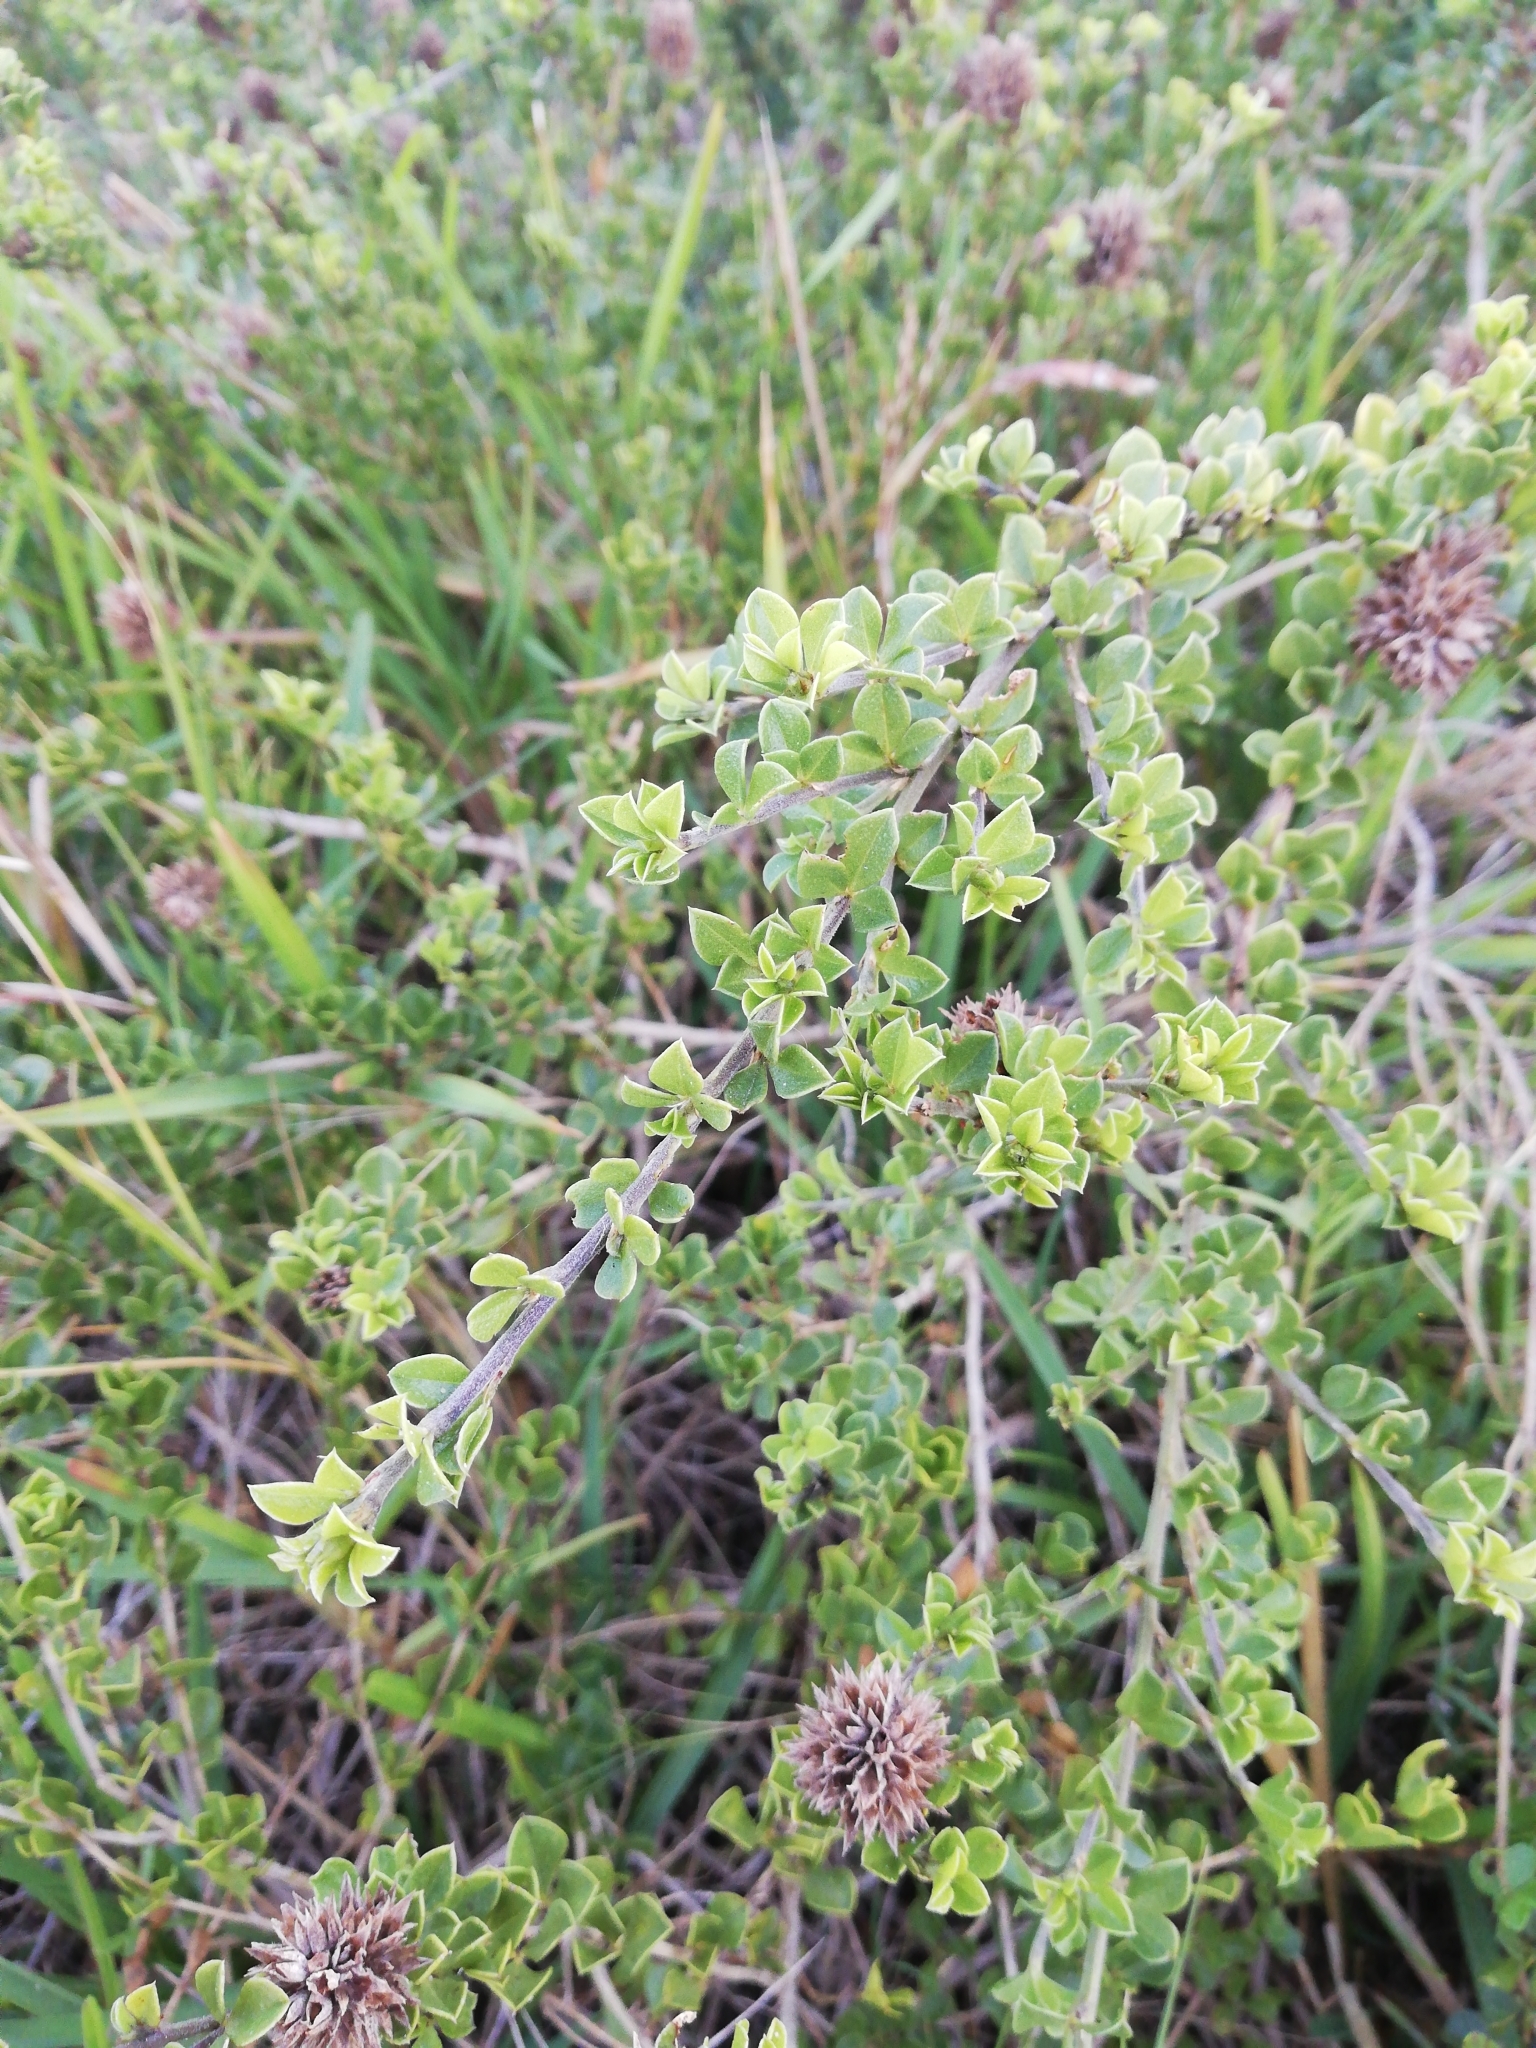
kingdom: Plantae
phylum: Tracheophyta
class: Magnoliopsida
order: Fabales
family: Fabaceae
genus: Psoralea
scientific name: Psoralea bracteolata
